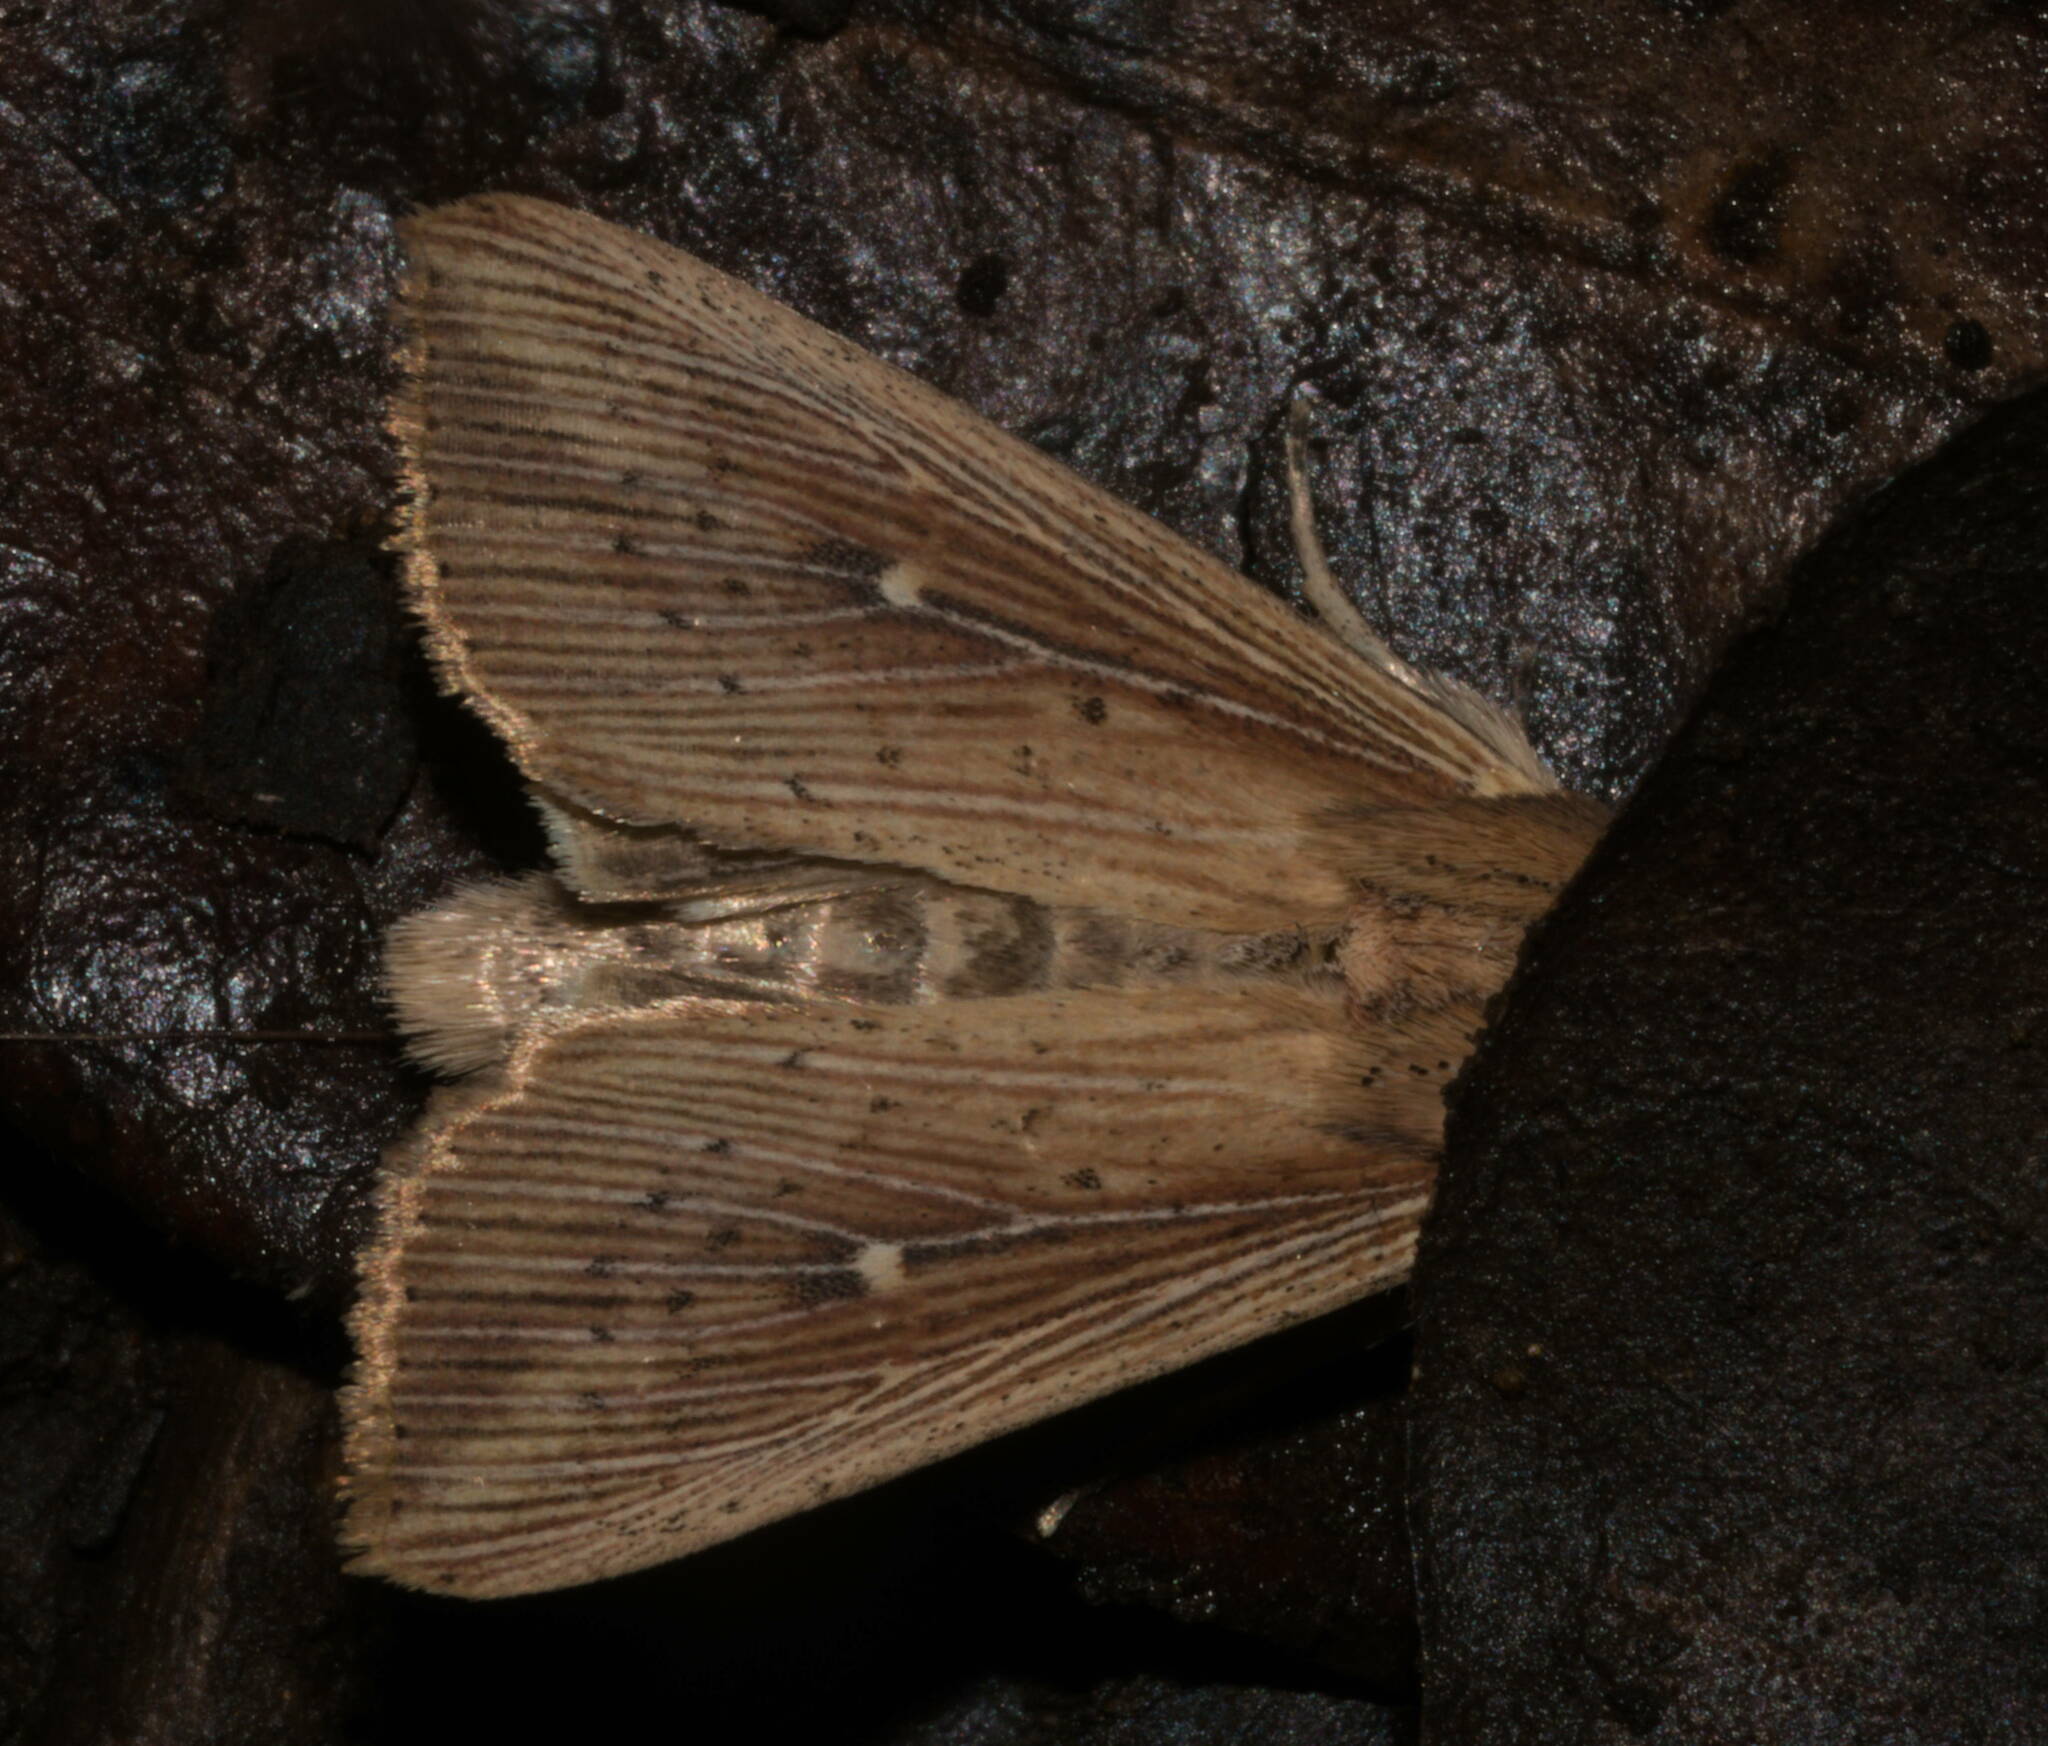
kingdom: Animalia
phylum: Arthropoda
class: Insecta
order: Lepidoptera
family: Noctuidae
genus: Leucania
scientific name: Leucania striata
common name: Moth
